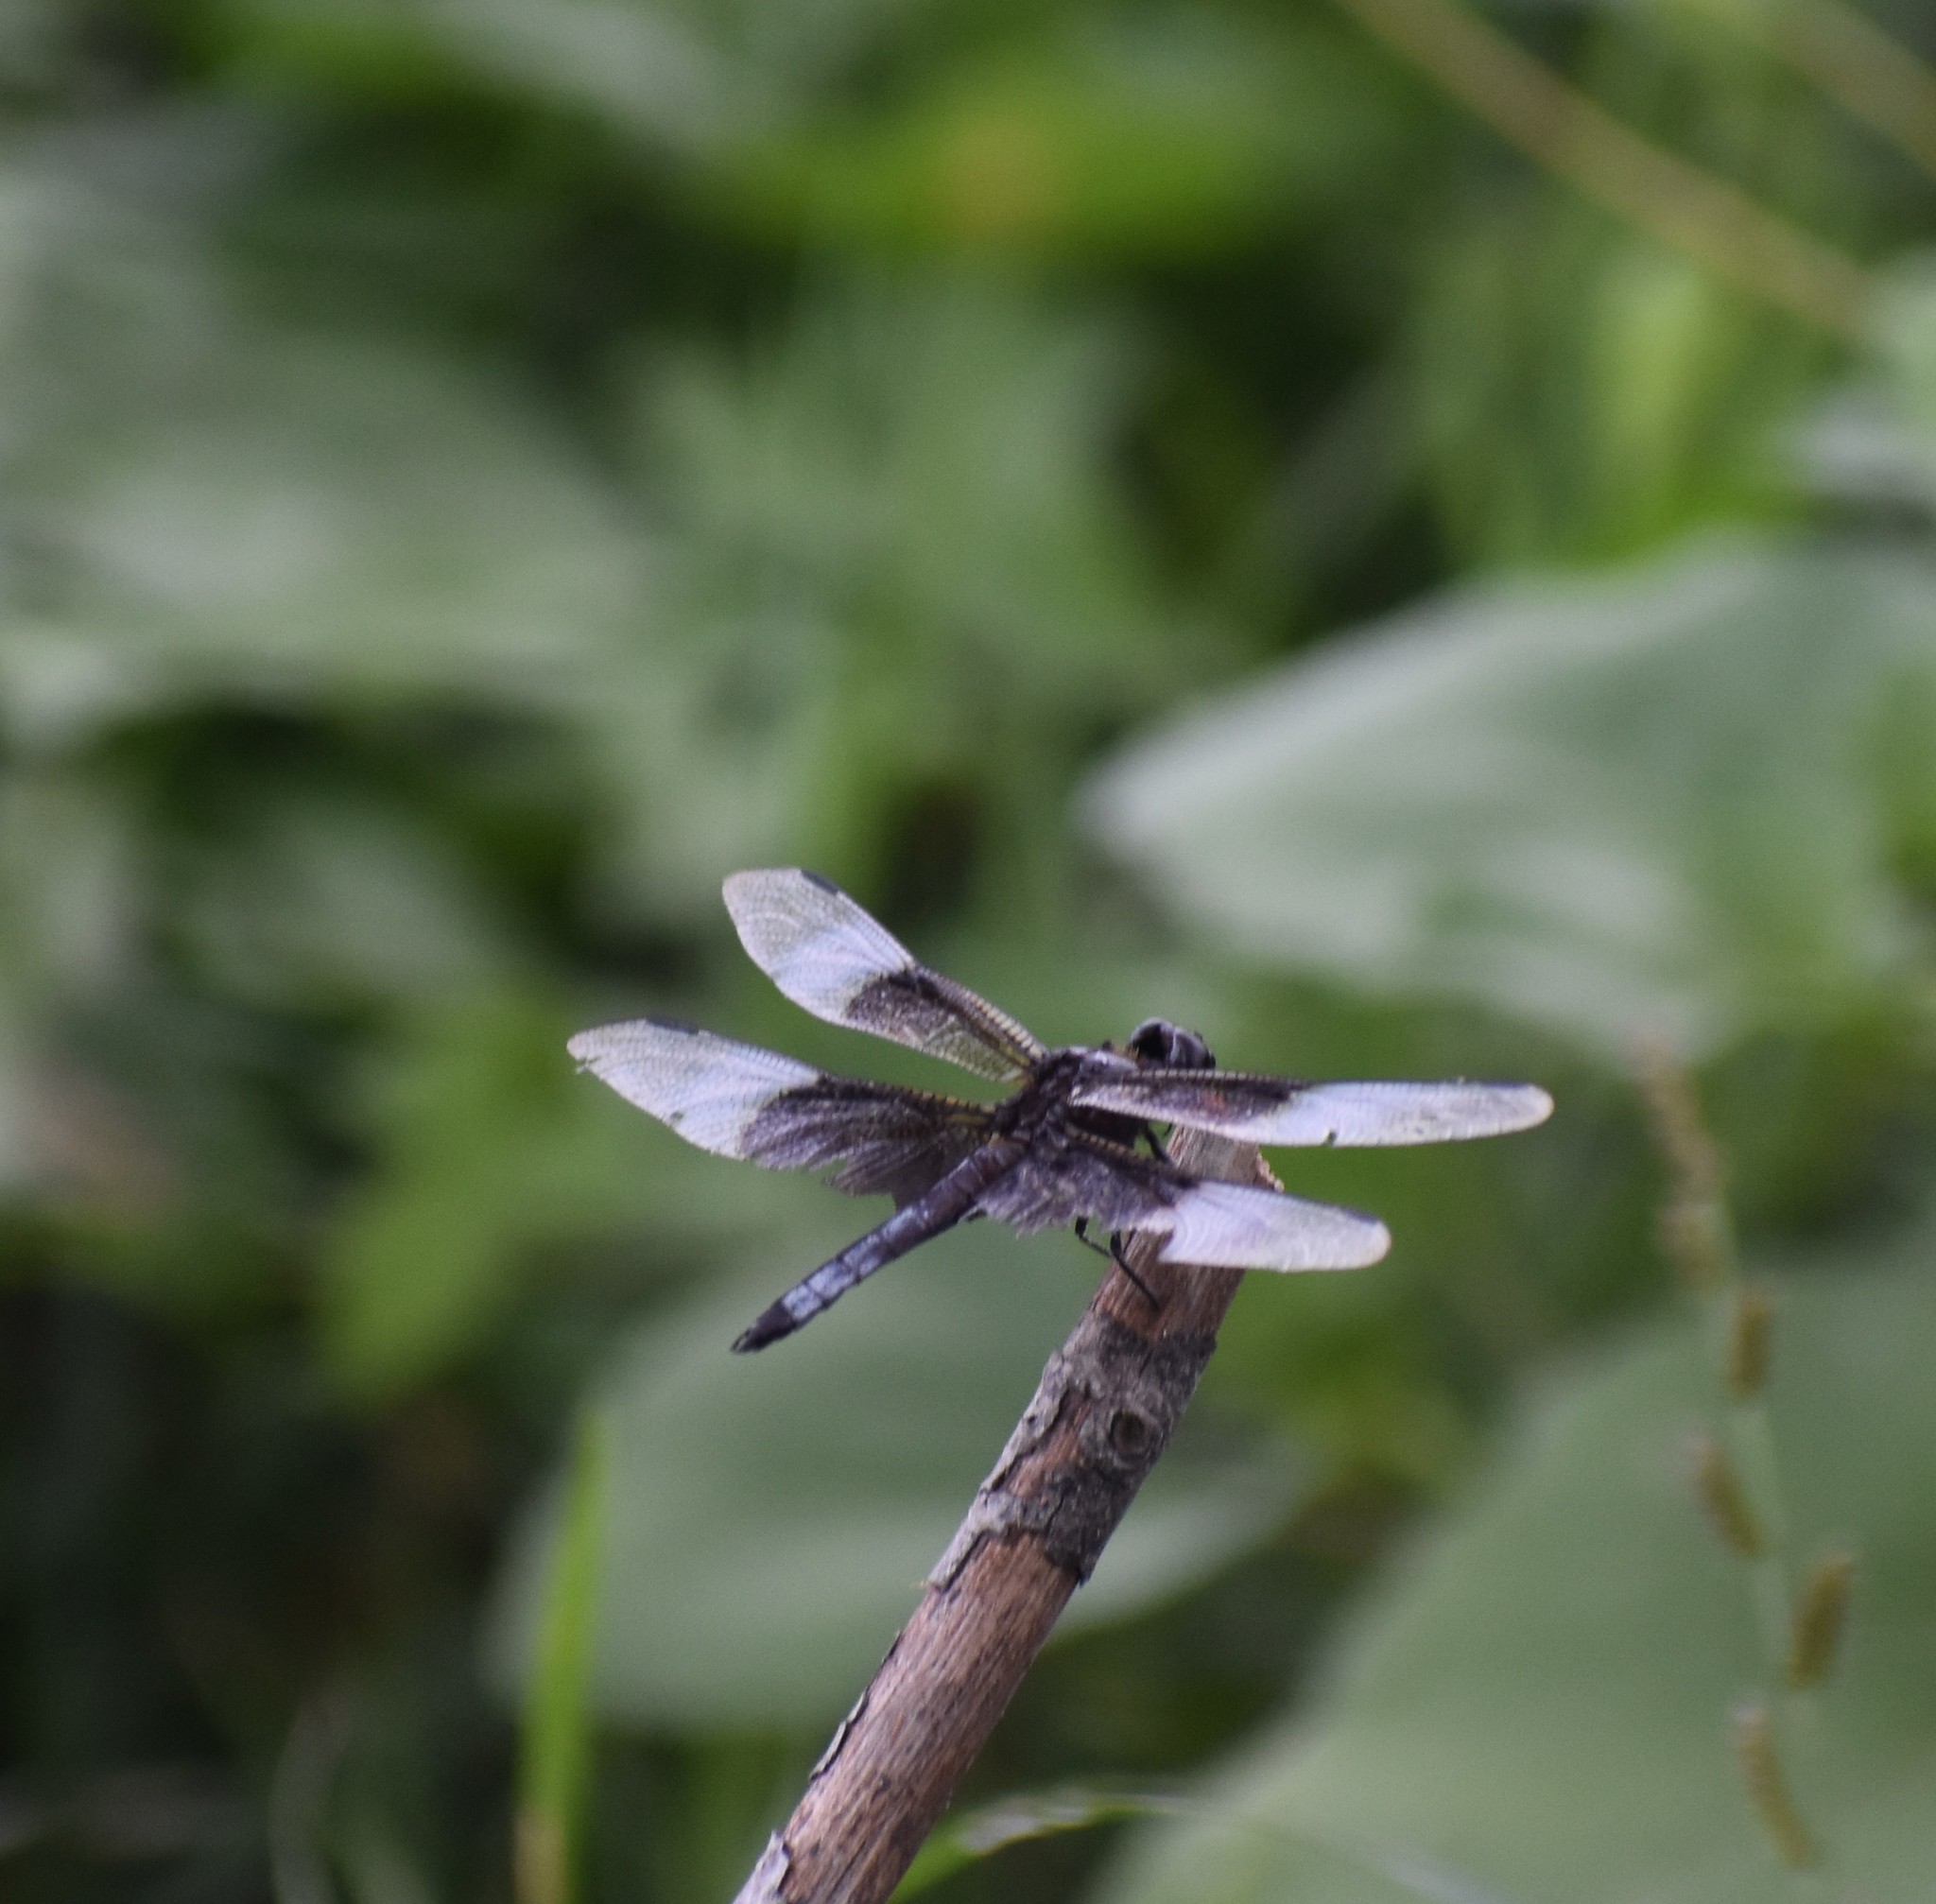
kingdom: Animalia
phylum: Arthropoda
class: Insecta
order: Odonata
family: Libellulidae
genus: Libellula
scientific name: Libellula luctuosa
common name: Widow skimmer
